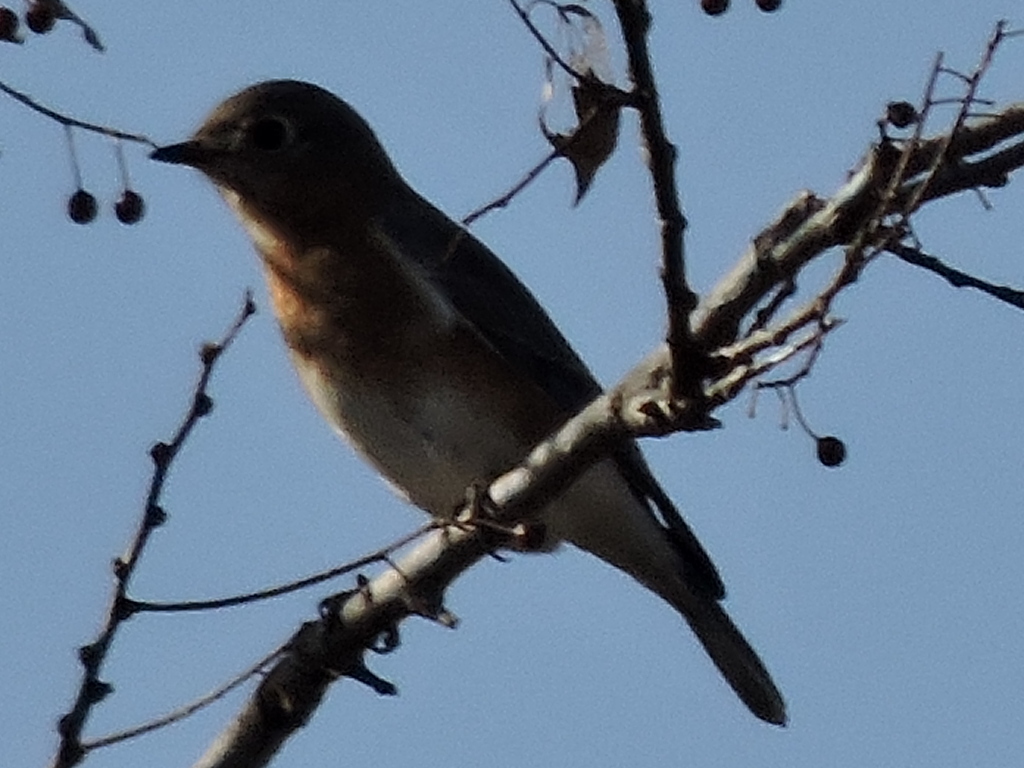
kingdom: Animalia
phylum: Chordata
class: Aves
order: Passeriformes
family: Turdidae
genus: Sialia
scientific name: Sialia sialis
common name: Eastern bluebird
